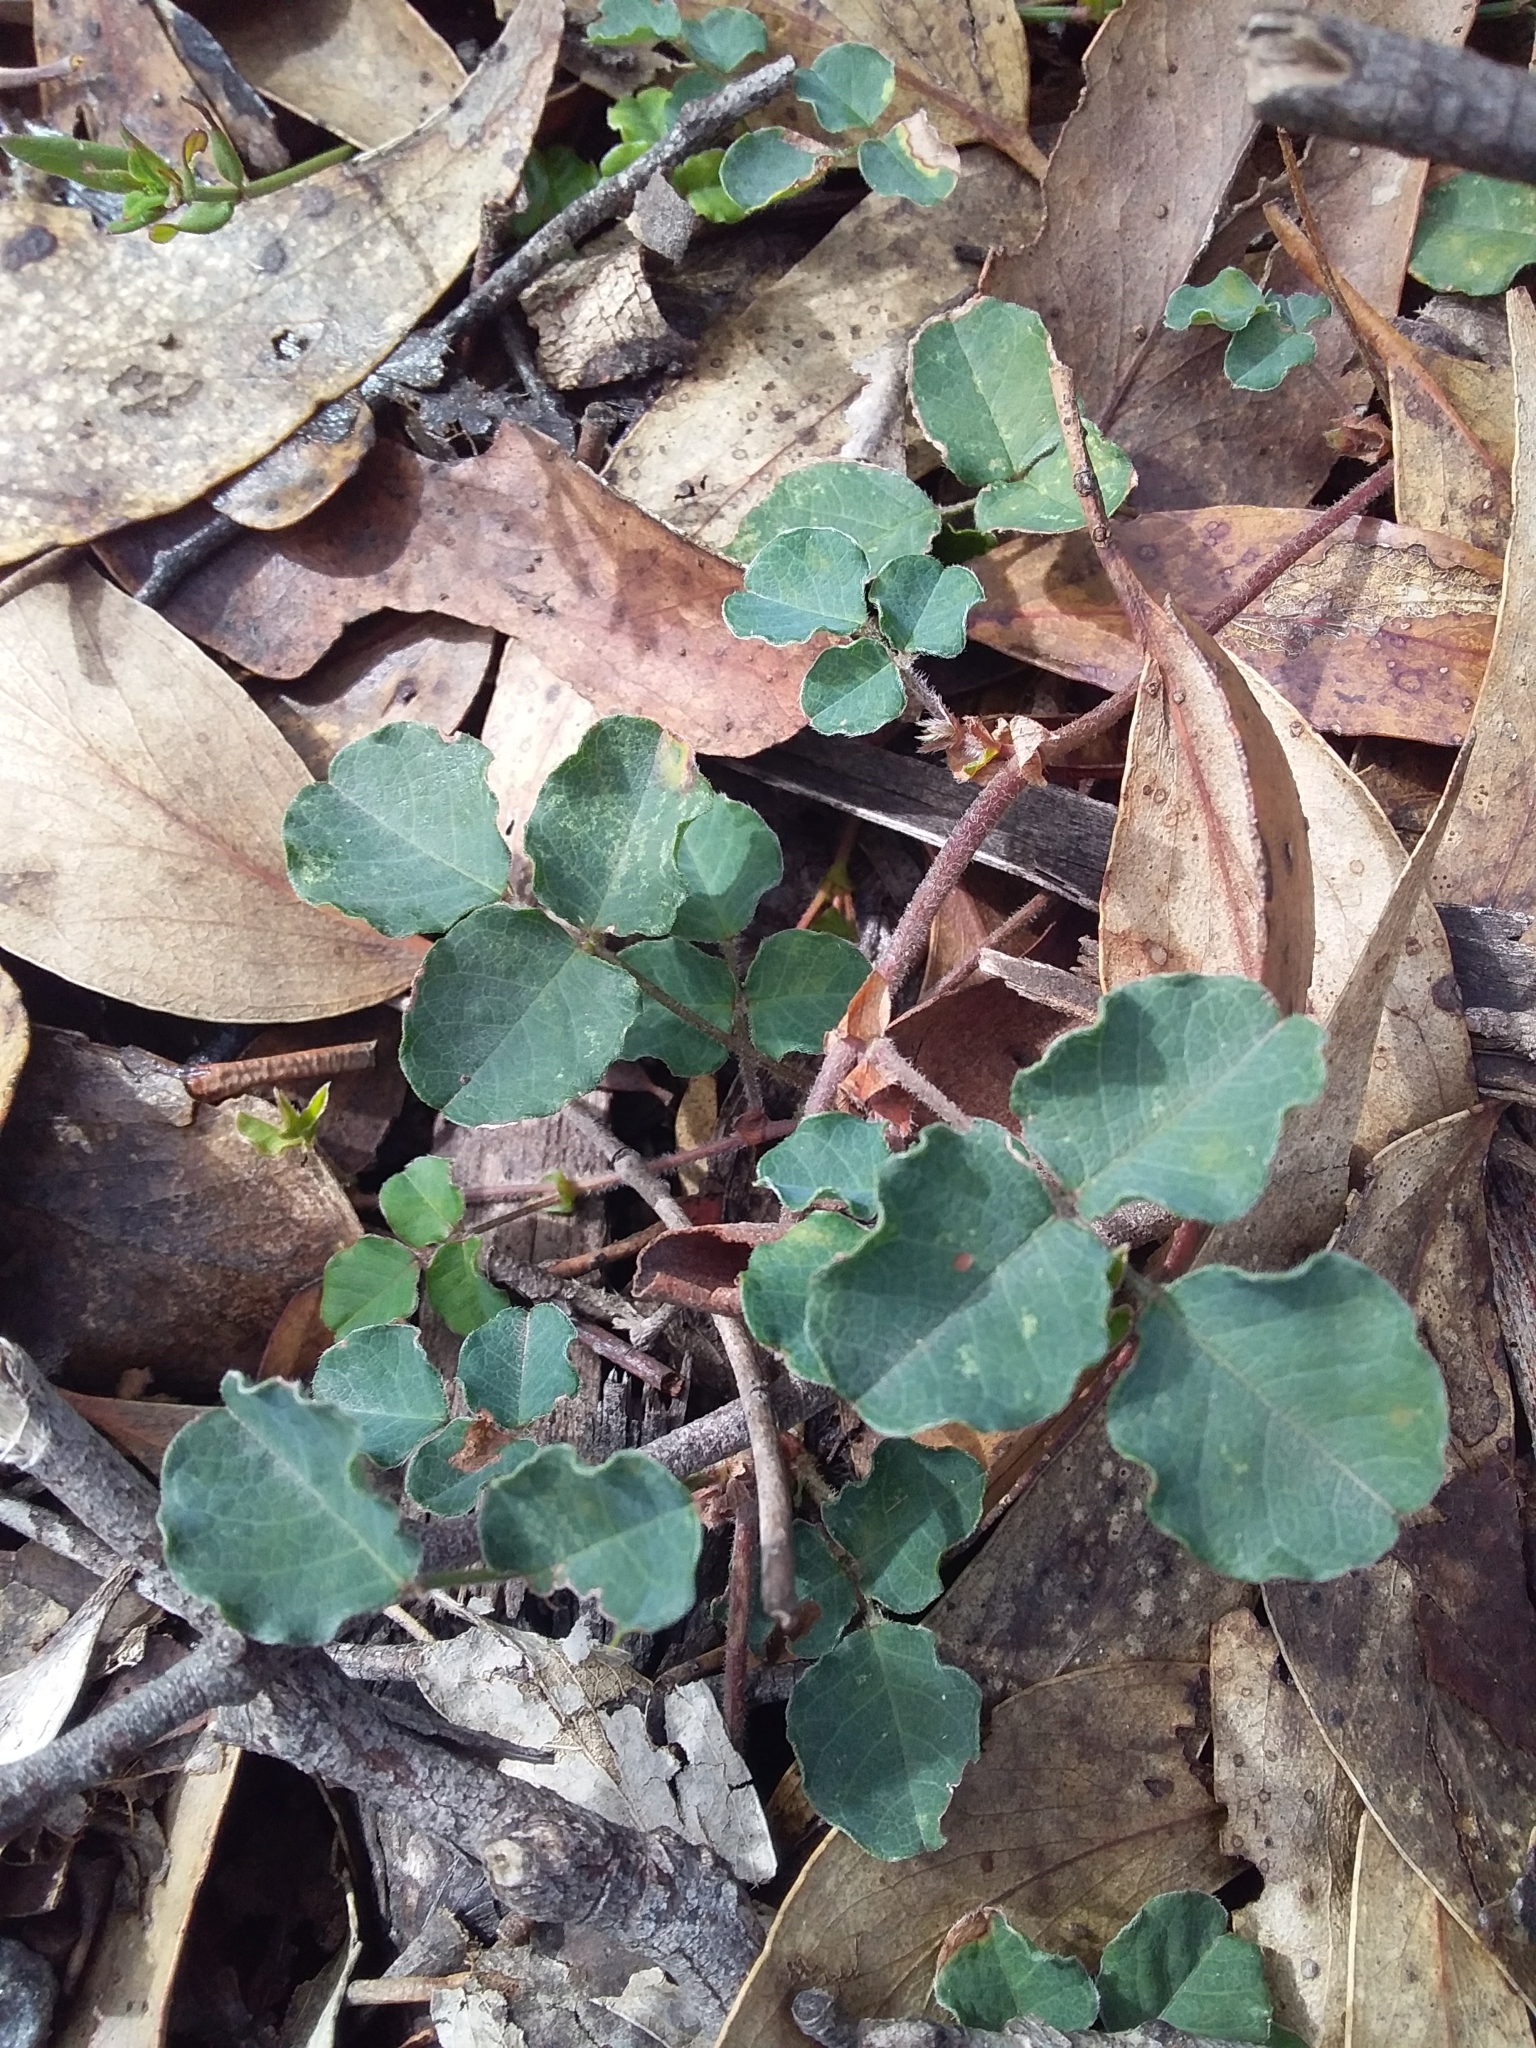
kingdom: Plantae
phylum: Tracheophyta
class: Magnoliopsida
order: Fabales
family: Fabaceae
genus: Kennedia
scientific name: Kennedia prostrata
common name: Running-postman
